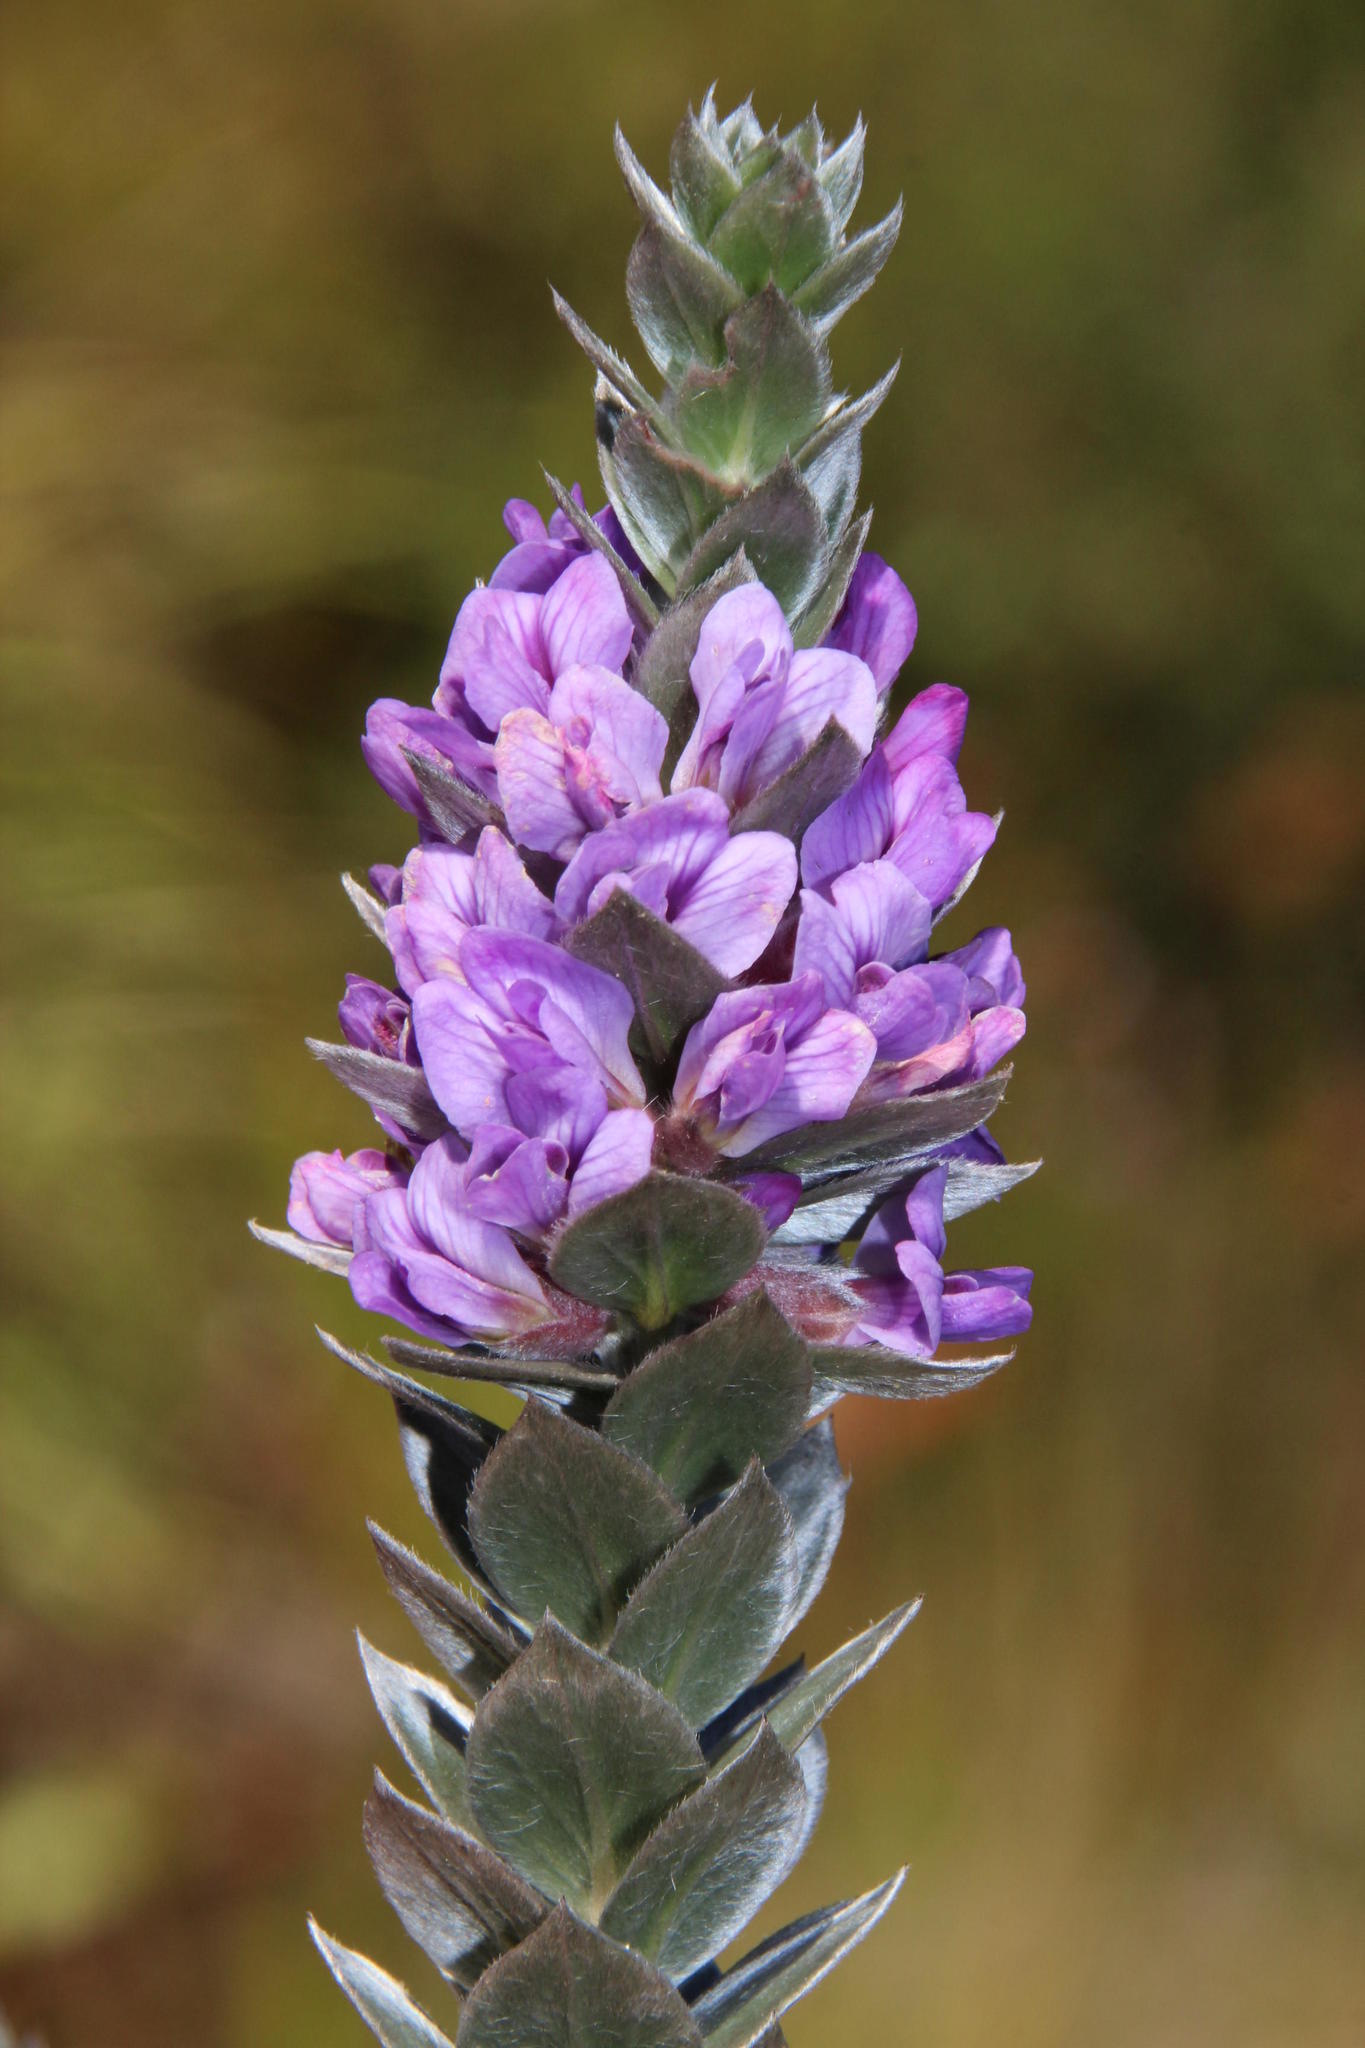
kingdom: Plantae
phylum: Tracheophyta
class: Magnoliopsida
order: Fabales
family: Fabaceae
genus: Amphithalea
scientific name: Amphithalea imbricata
